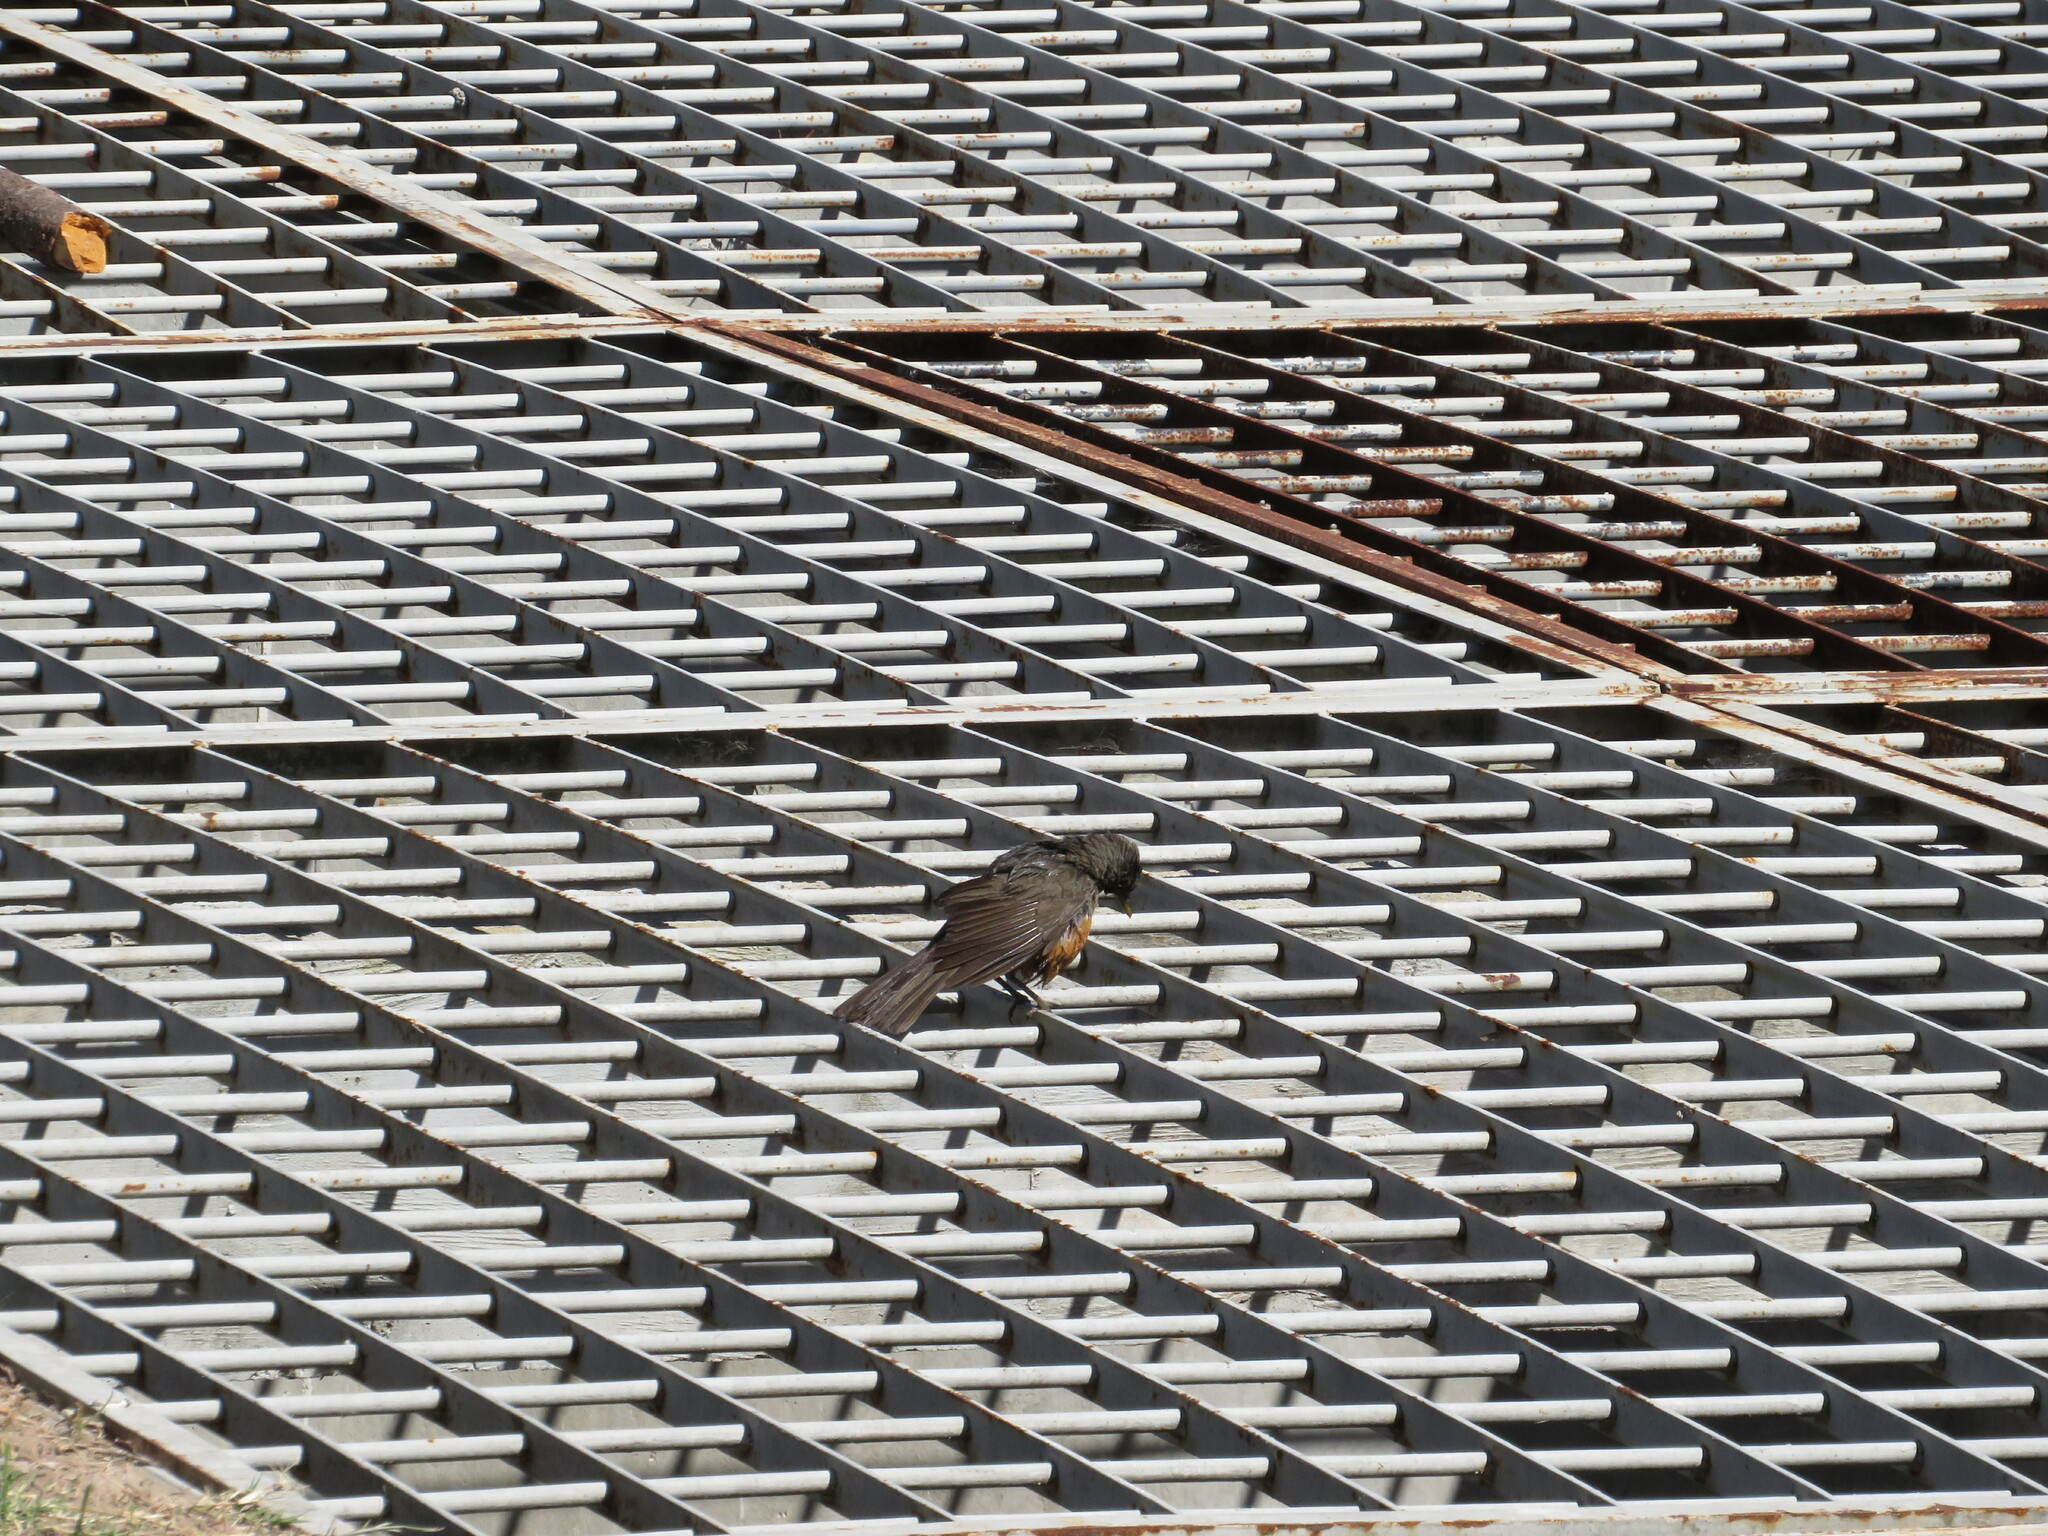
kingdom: Animalia
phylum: Chordata
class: Aves
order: Passeriformes
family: Turdidae
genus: Turdus
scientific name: Turdus rufiventris
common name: Rufous-bellied thrush
